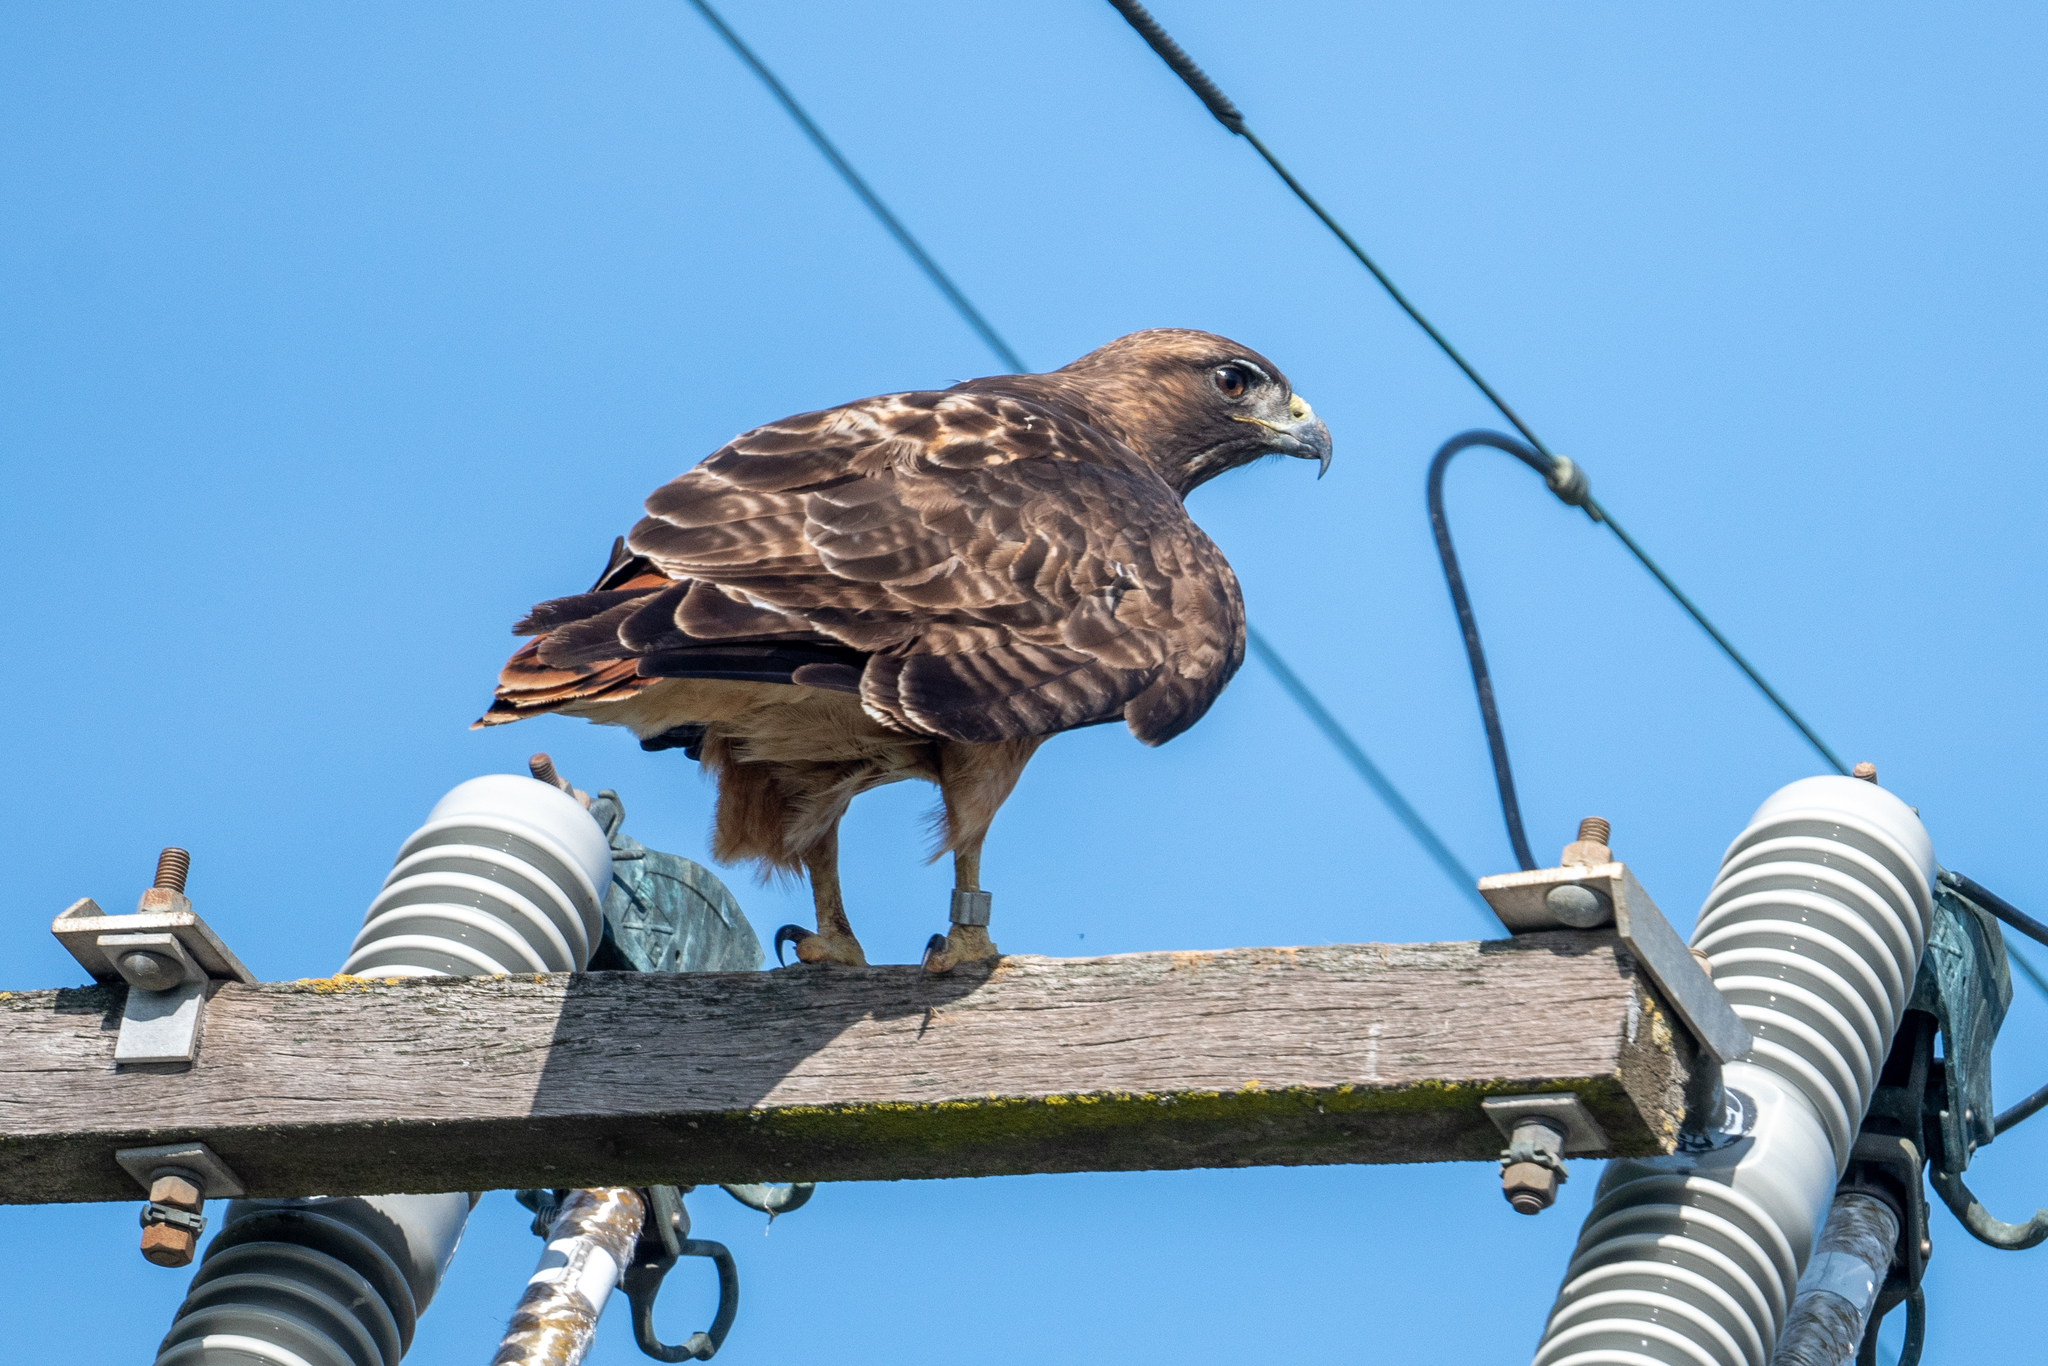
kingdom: Animalia
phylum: Chordata
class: Aves
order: Accipitriformes
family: Accipitridae
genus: Buteo
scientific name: Buteo jamaicensis
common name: Red-tailed hawk
